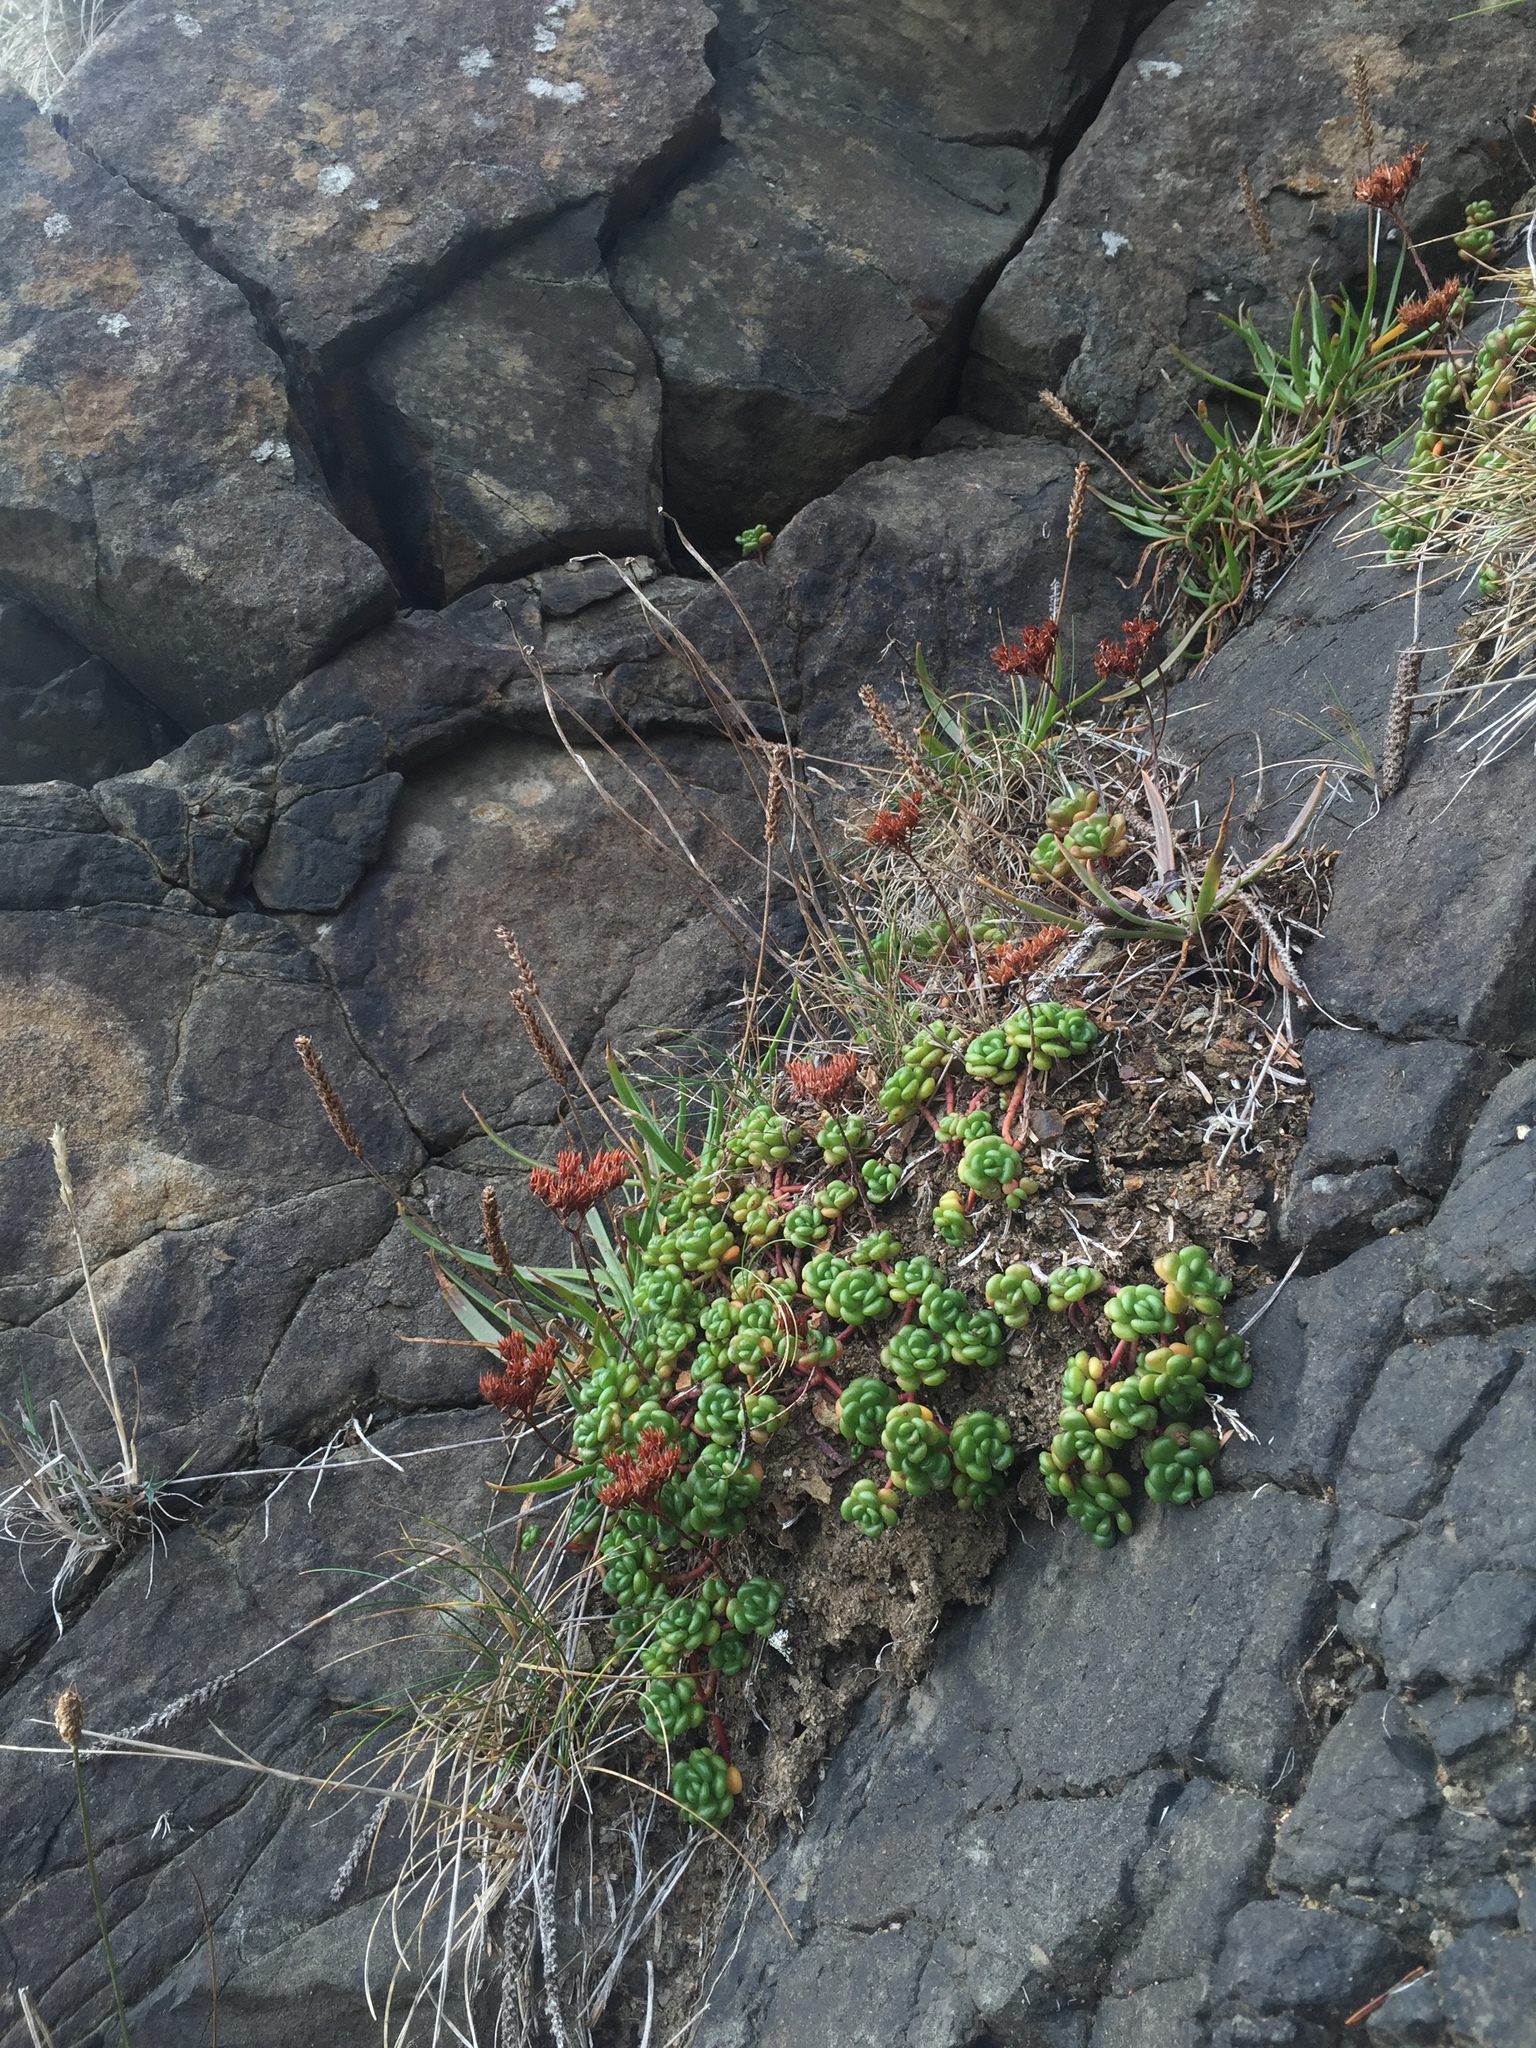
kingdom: Plantae
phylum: Tracheophyta
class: Magnoliopsida
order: Saxifragales
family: Crassulaceae
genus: Sedum
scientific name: Sedum oreganum
